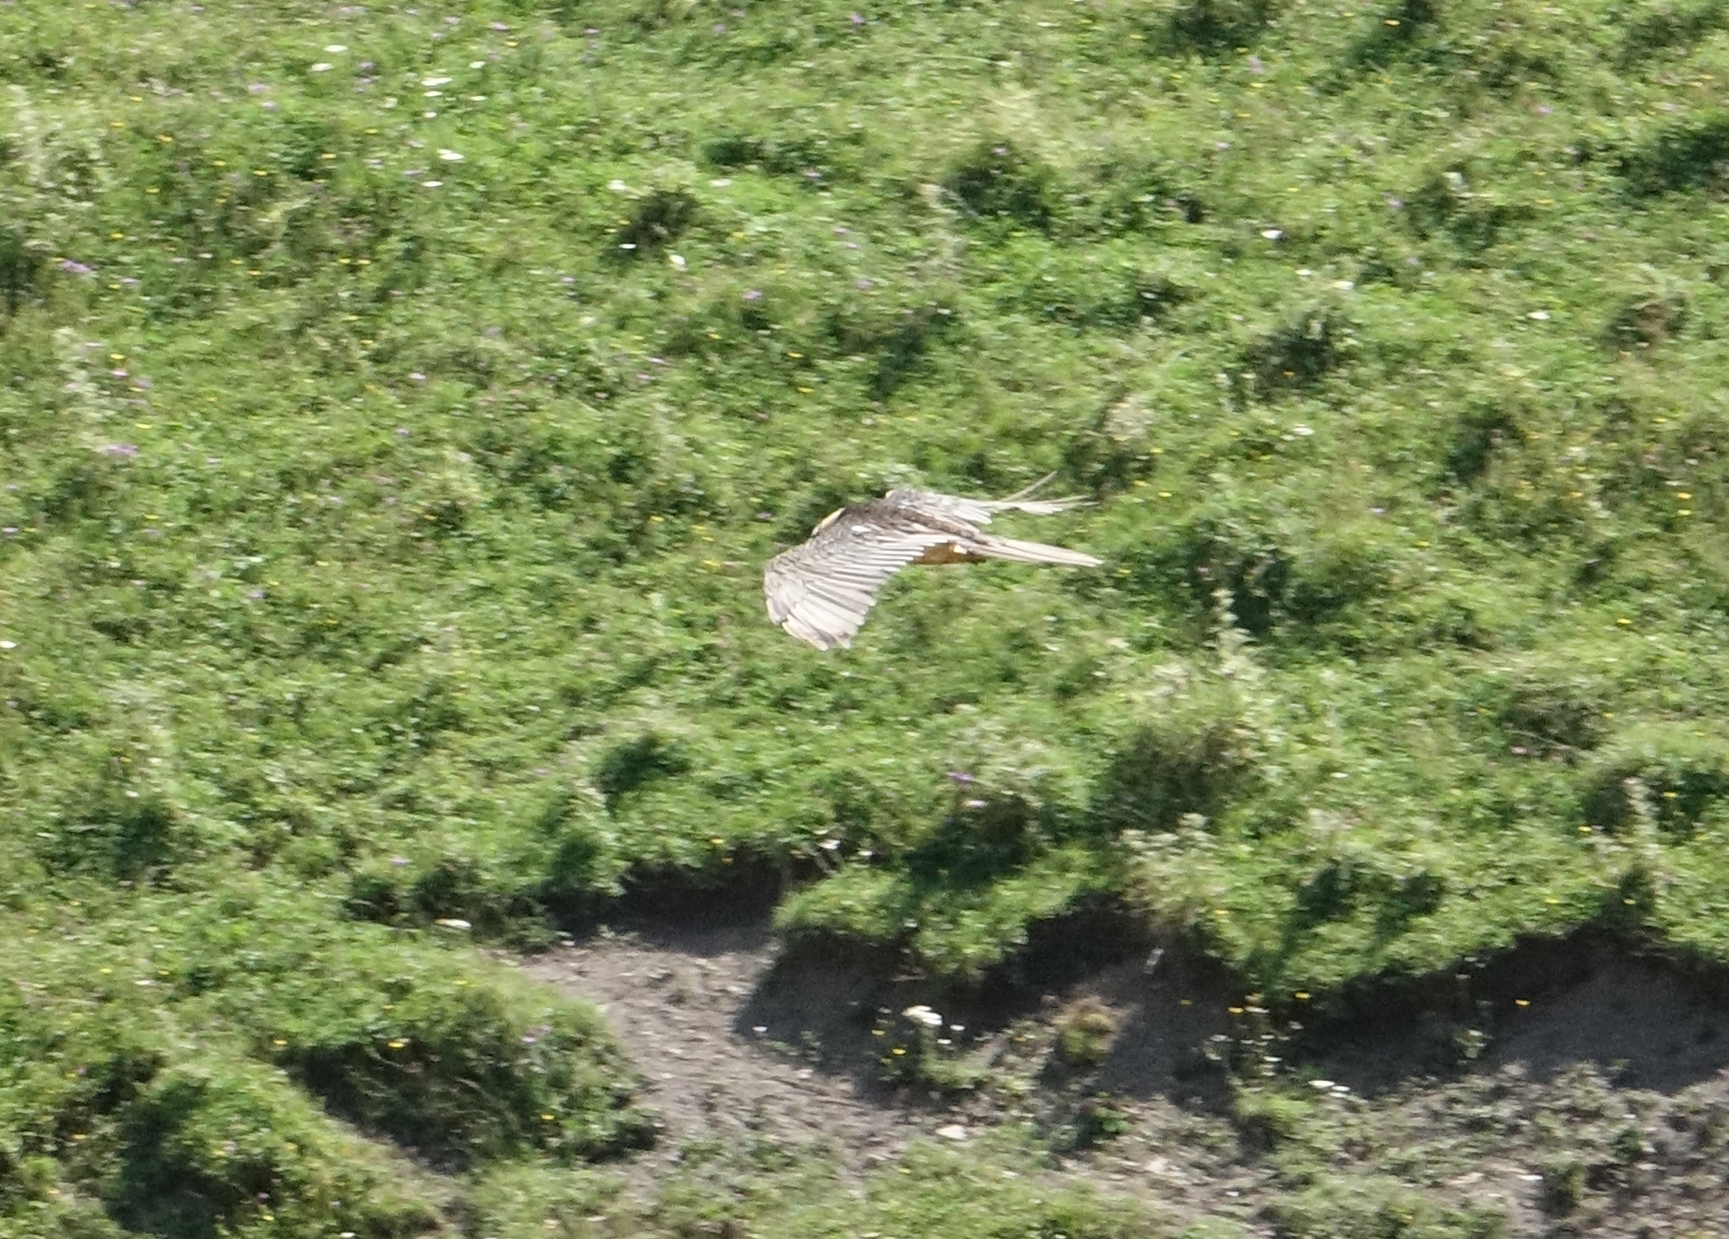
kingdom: Animalia
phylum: Chordata
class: Aves
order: Accipitriformes
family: Accipitridae
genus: Gypaetus
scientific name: Gypaetus barbatus
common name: Bearded vulture
